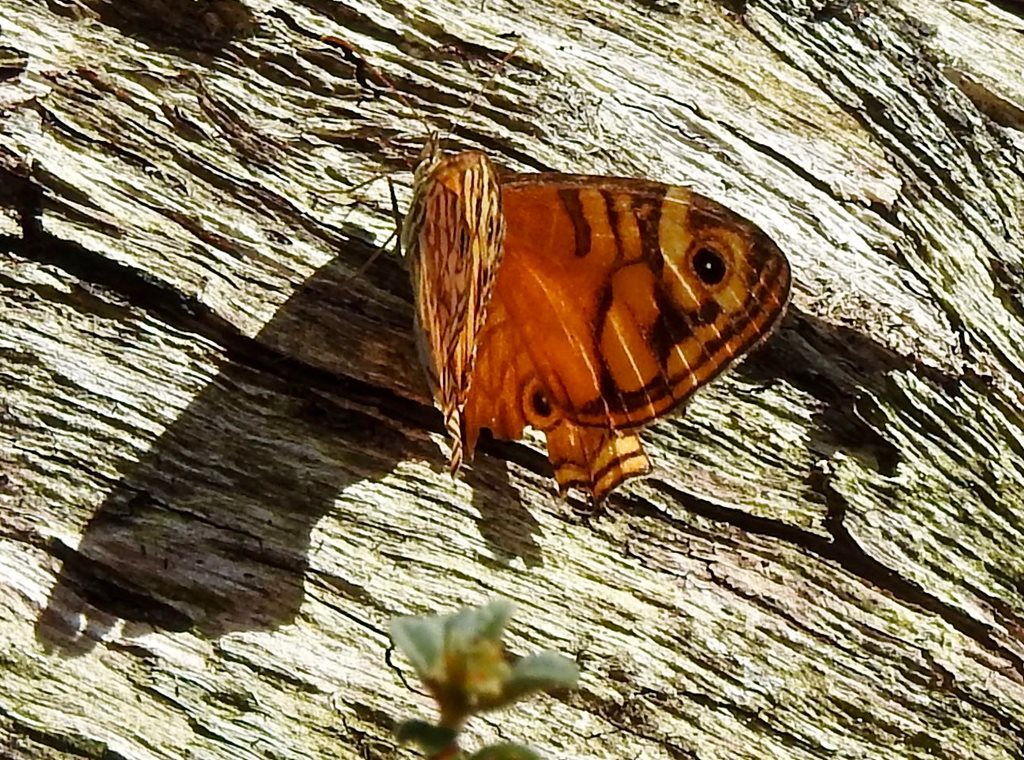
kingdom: Animalia
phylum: Arthropoda
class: Insecta
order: Lepidoptera
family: Nymphalidae
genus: Geitoneura
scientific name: Geitoneura acantha
